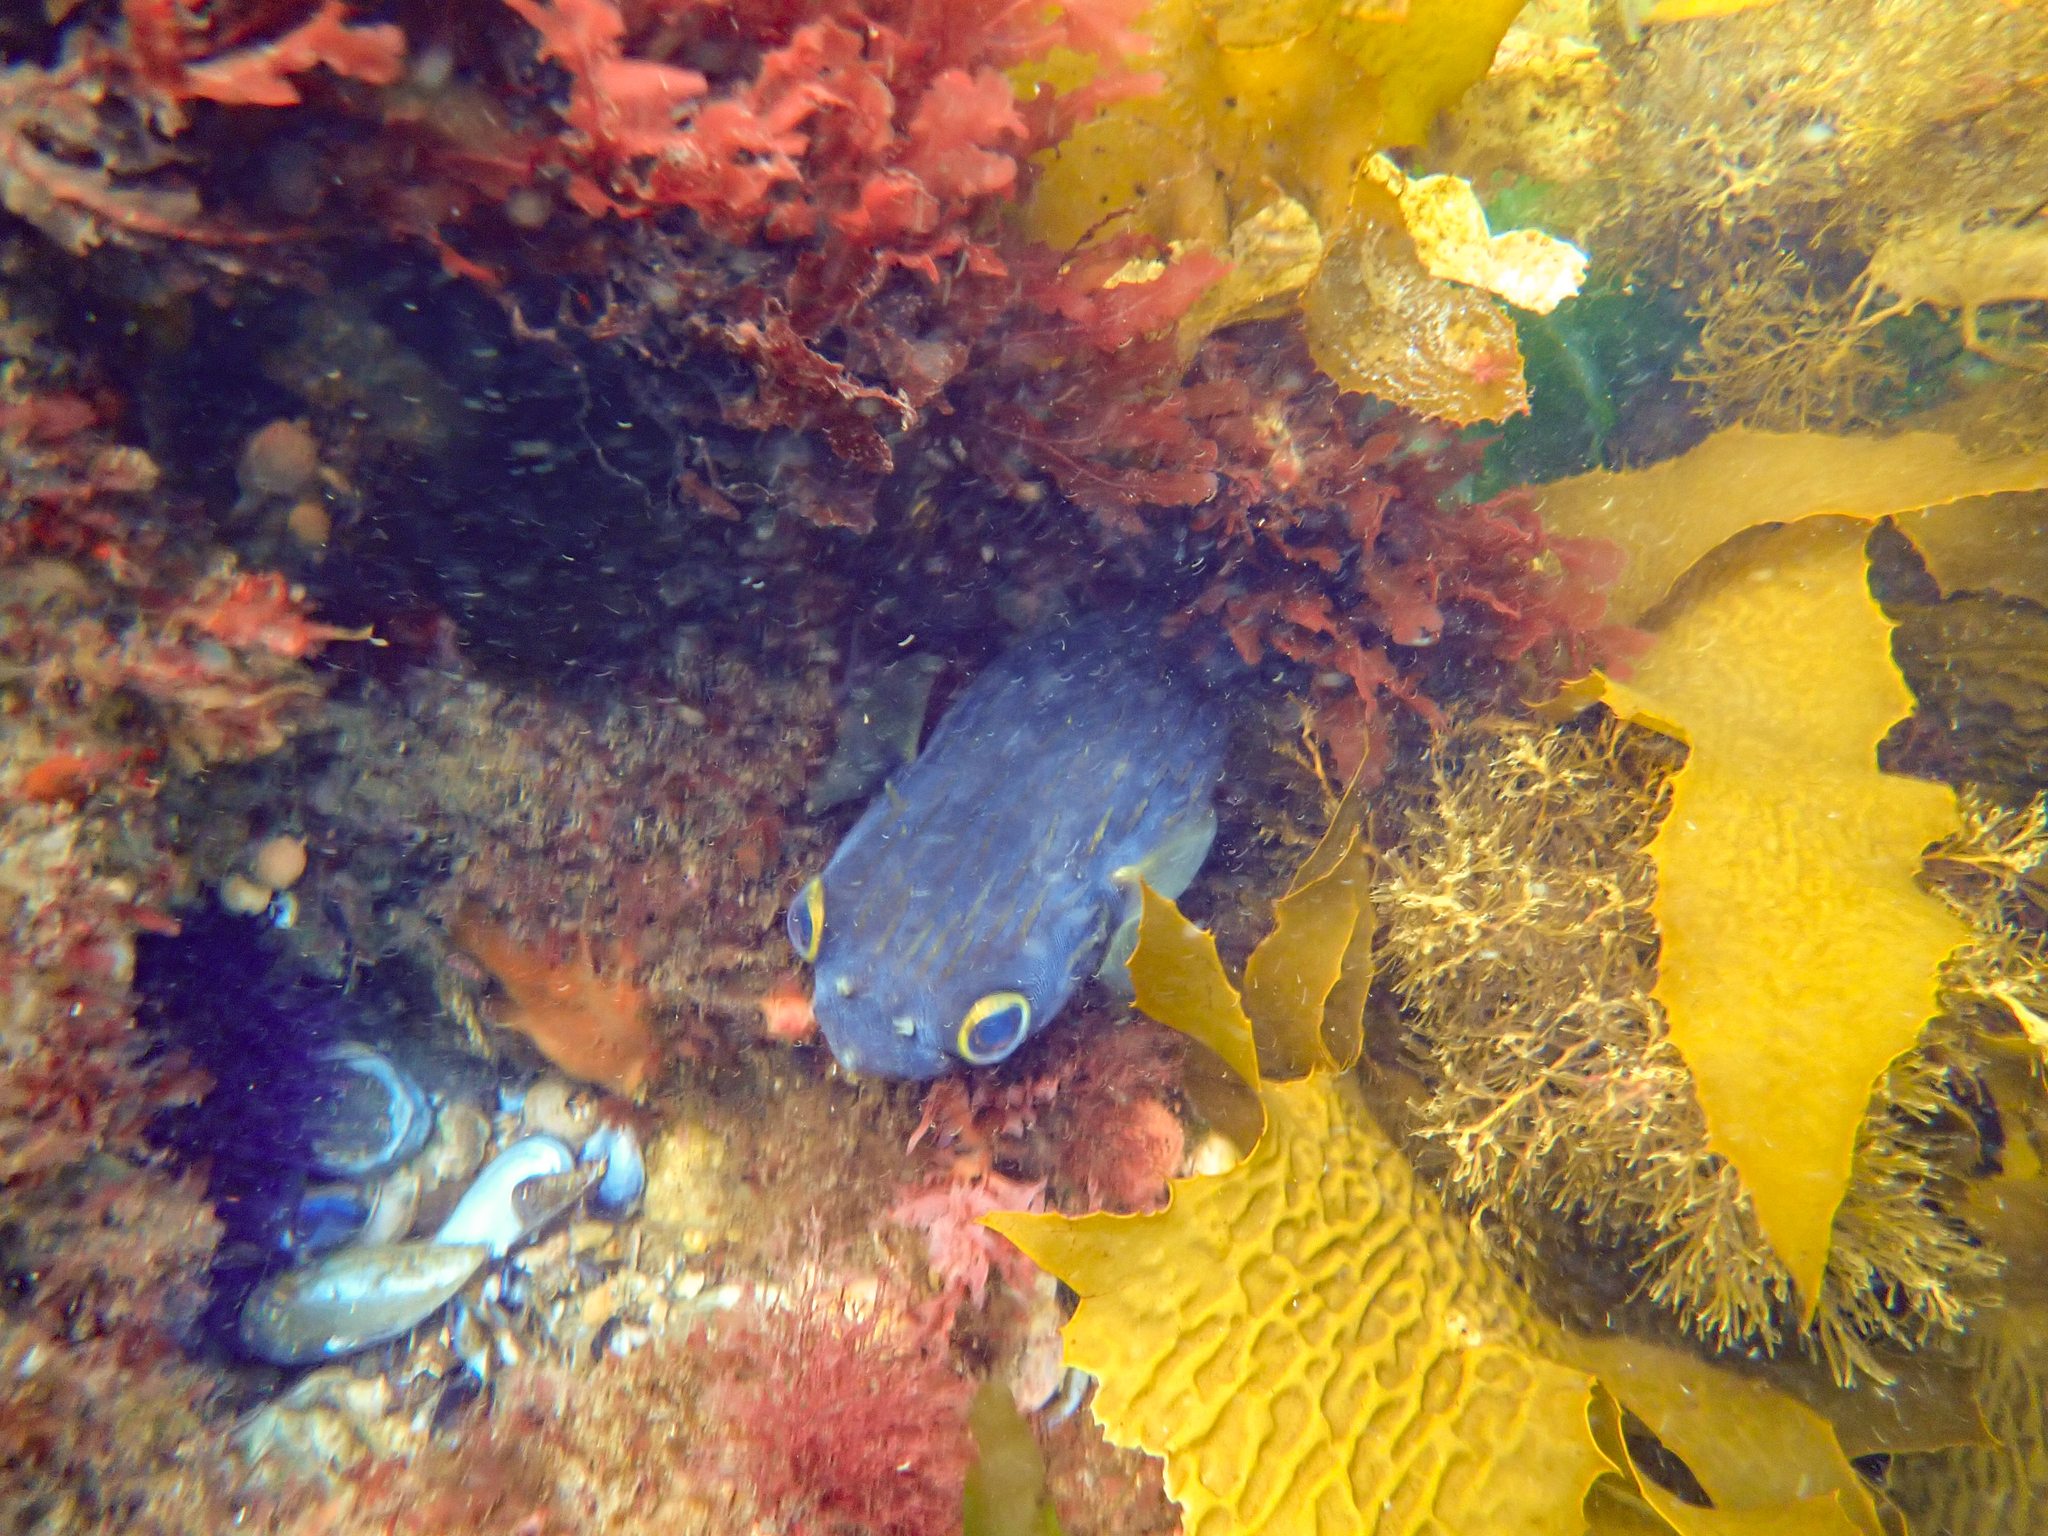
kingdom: Animalia
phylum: Chordata
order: Tetraodontiformes
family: Diodontidae
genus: Diodon
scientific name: Diodon nicthemerus
